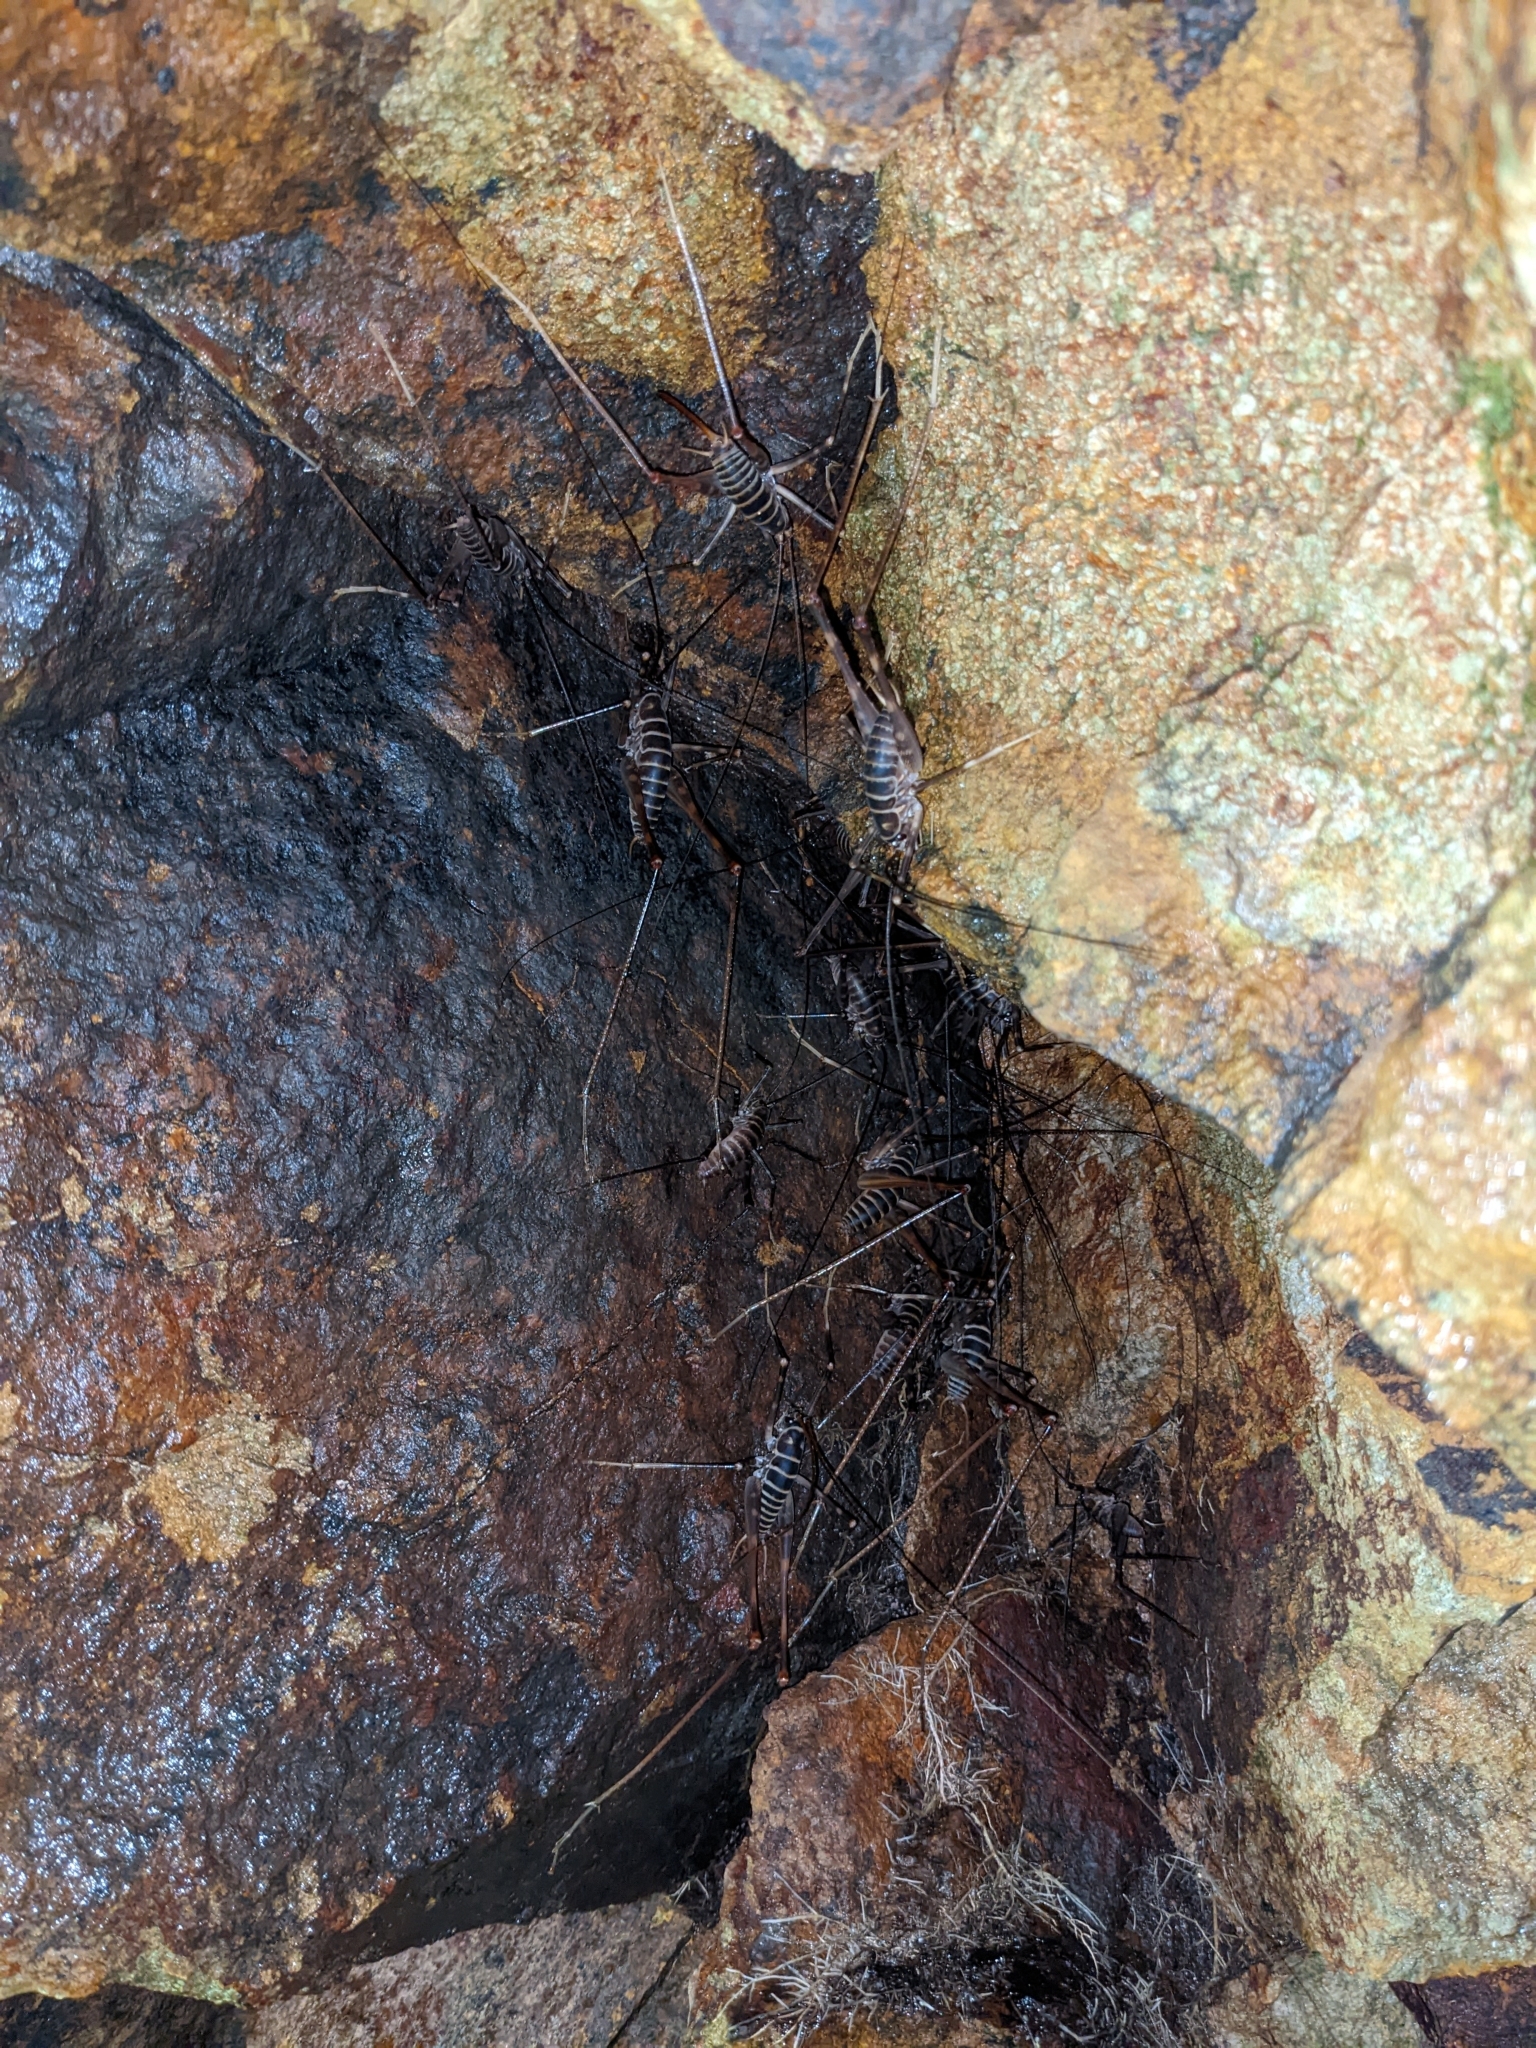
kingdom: Animalia
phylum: Arthropoda
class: Insecta
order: Orthoptera
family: Rhaphidophoridae
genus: Pachyrhamma
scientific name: Pachyrhamma acanthocera
